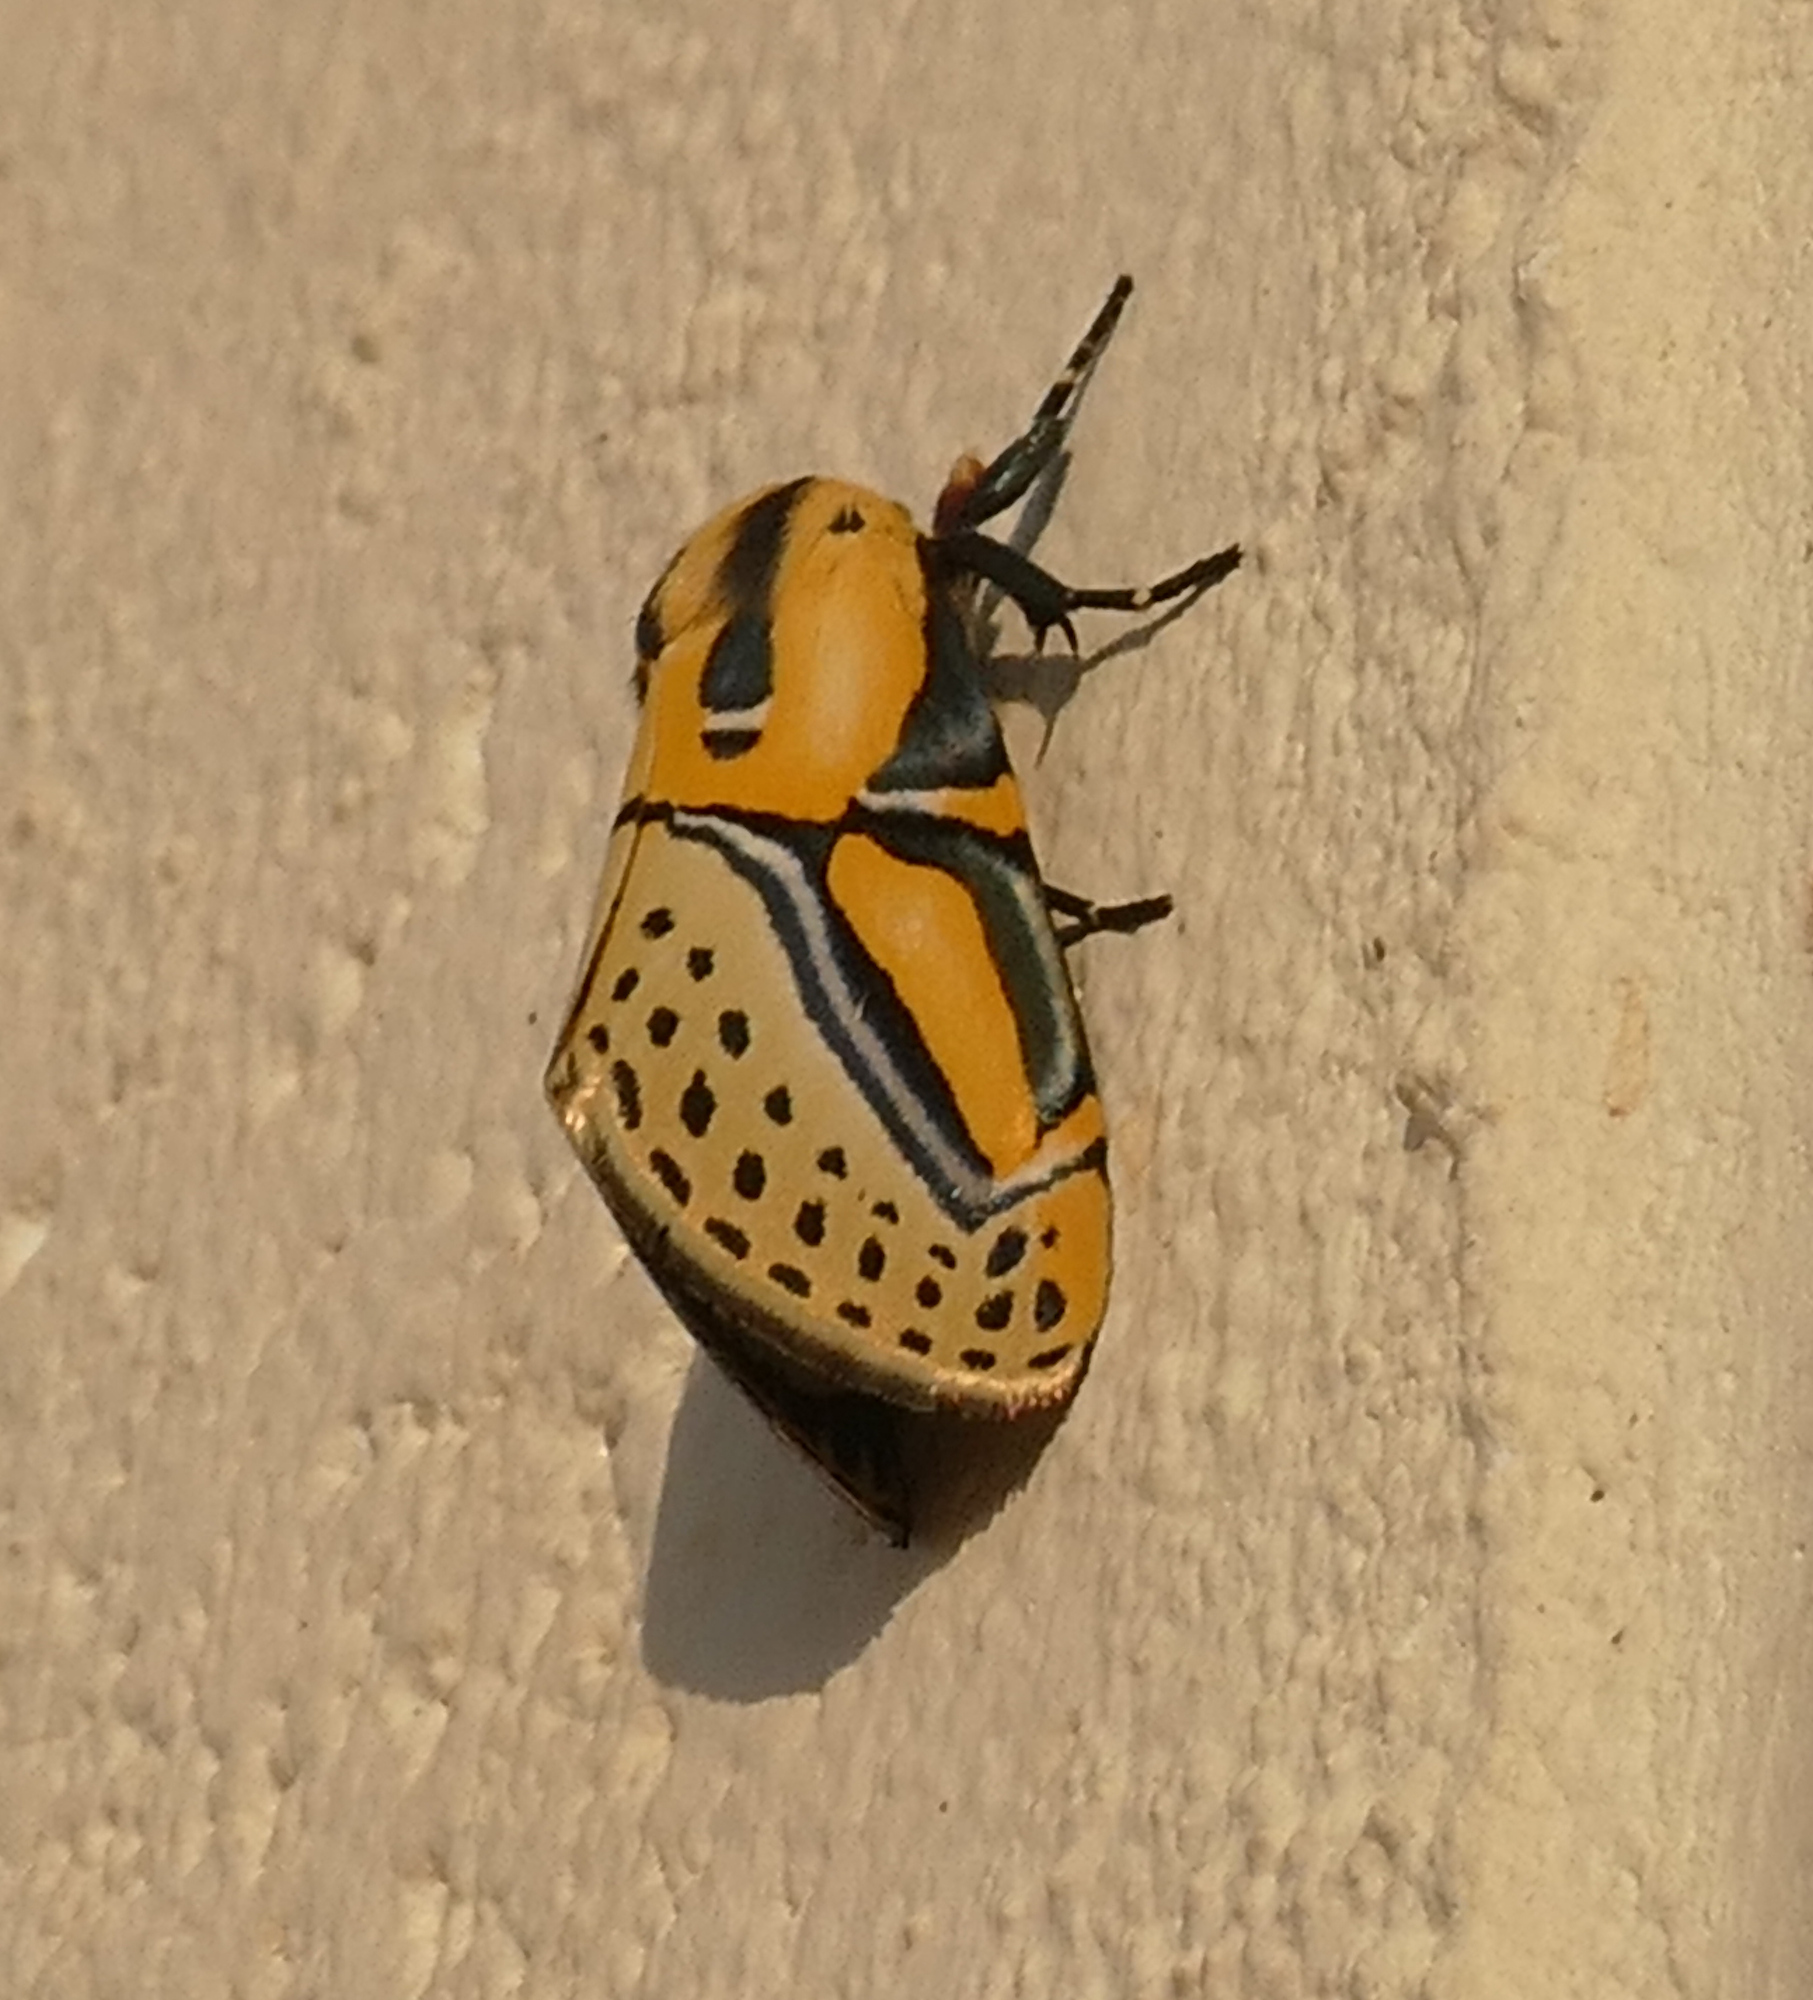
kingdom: Animalia
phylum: Arthropoda
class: Insecta
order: Lepidoptera
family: Erebidae
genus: Diphthera
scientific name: Diphthera festiva
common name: Hieroglyphic moth
